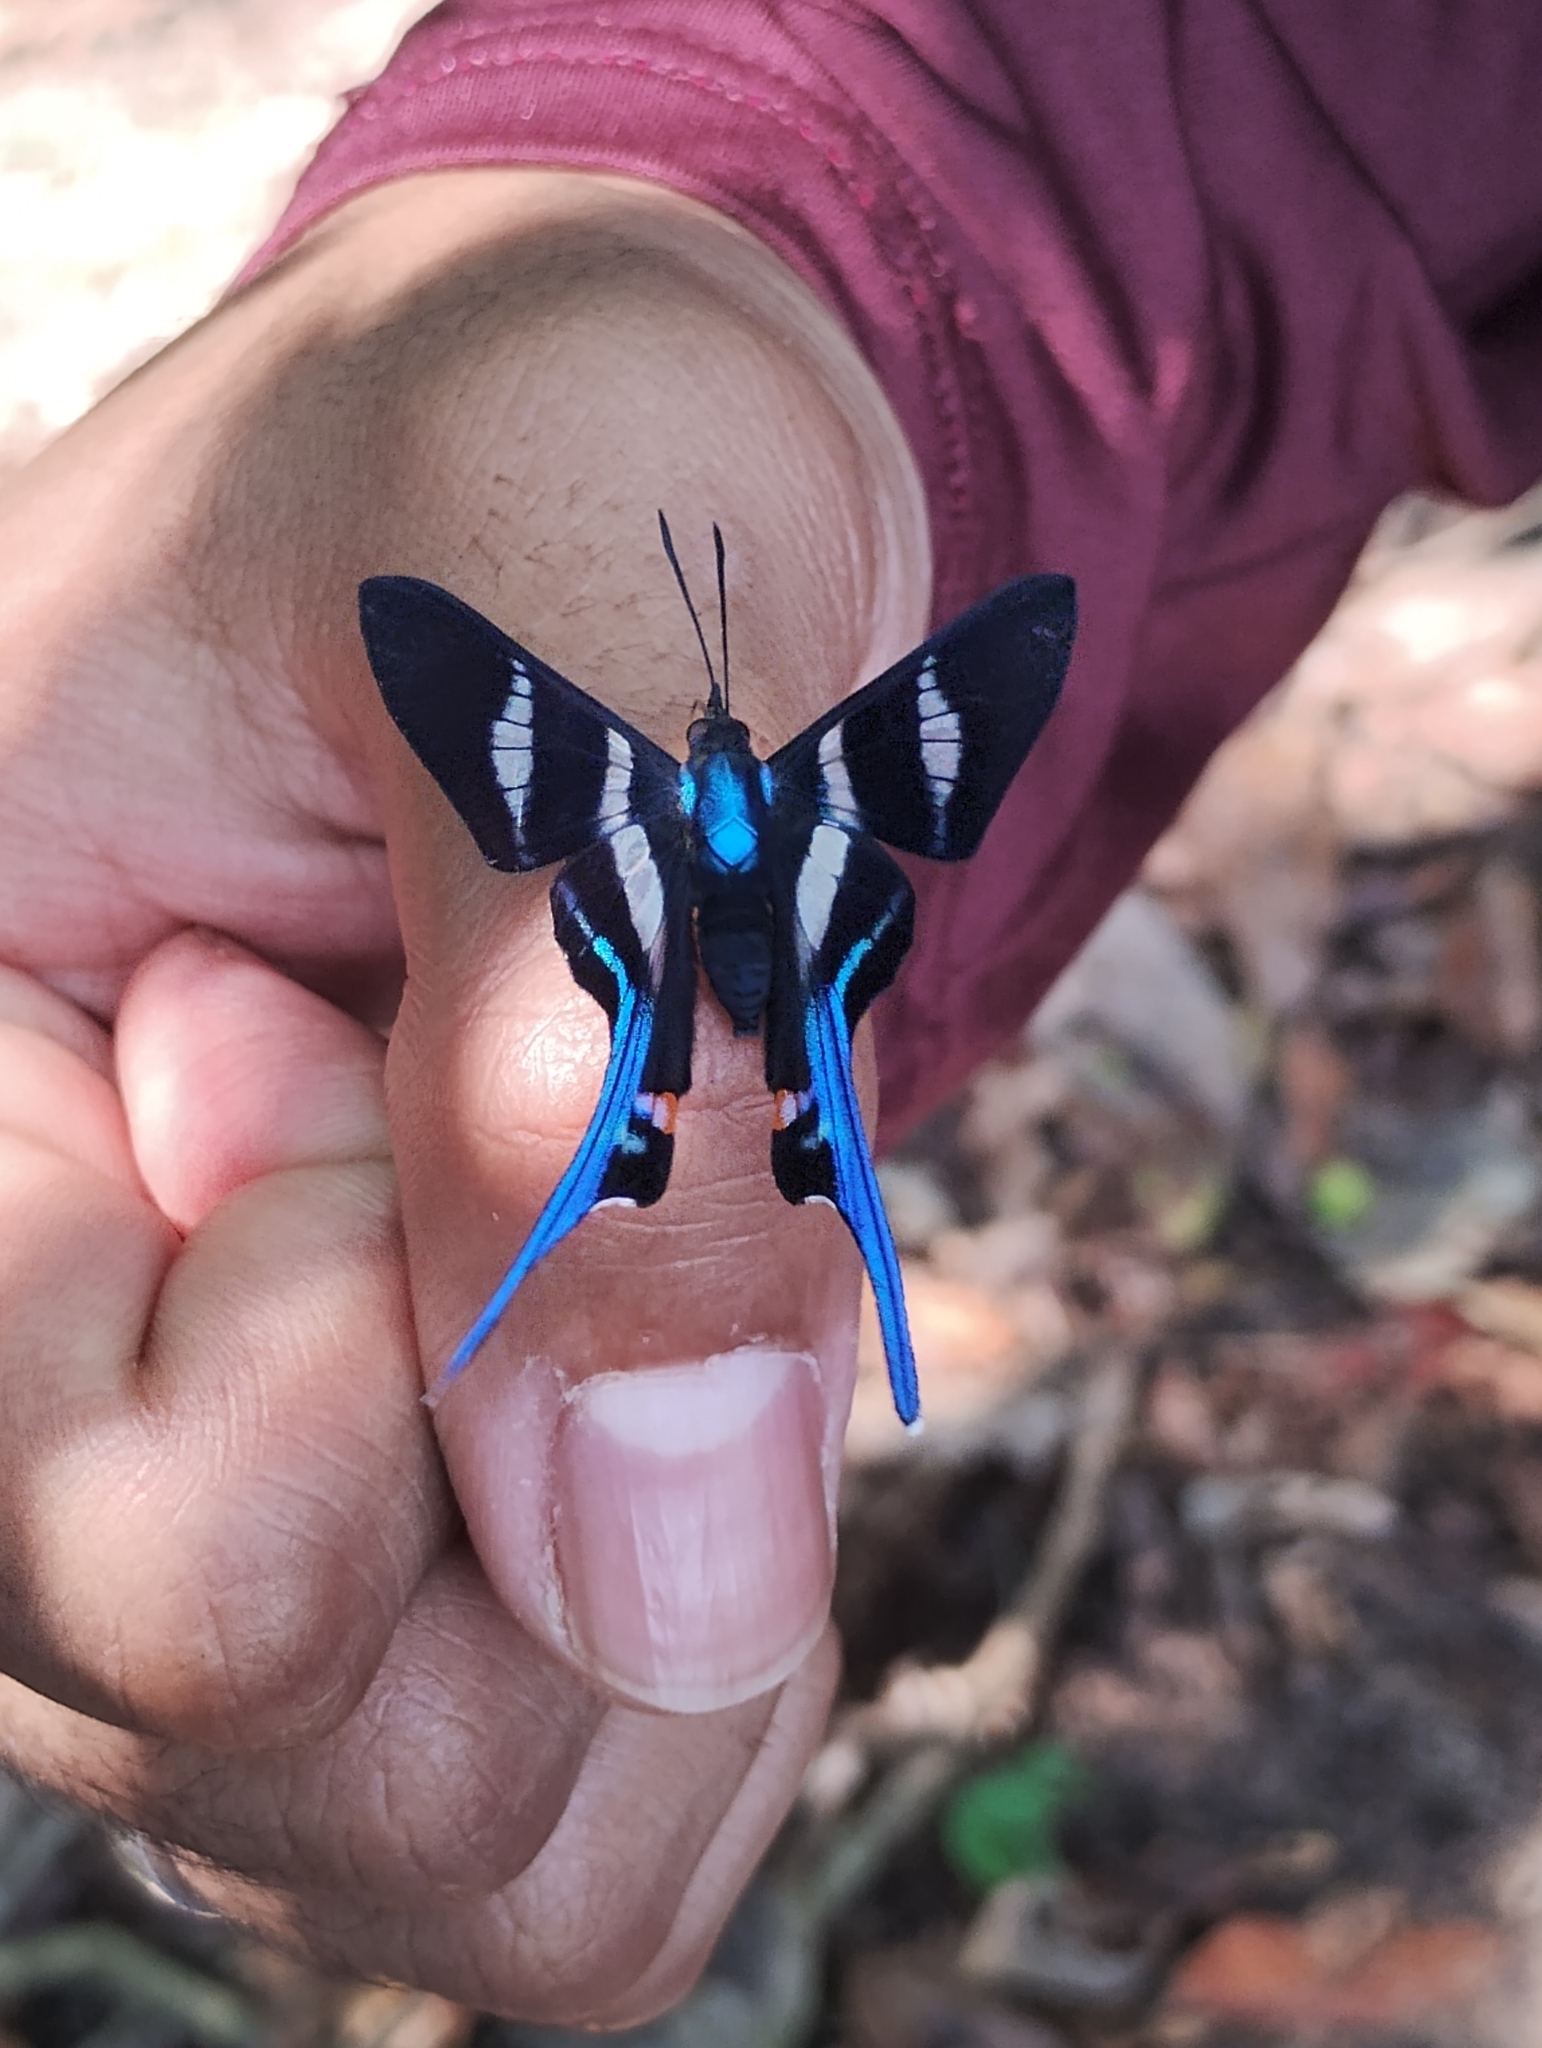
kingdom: Animalia
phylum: Arthropoda
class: Insecta
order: Lepidoptera
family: Riodinidae
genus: Rhetus
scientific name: Rhetus arcius
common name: Long-tailed metalmark
